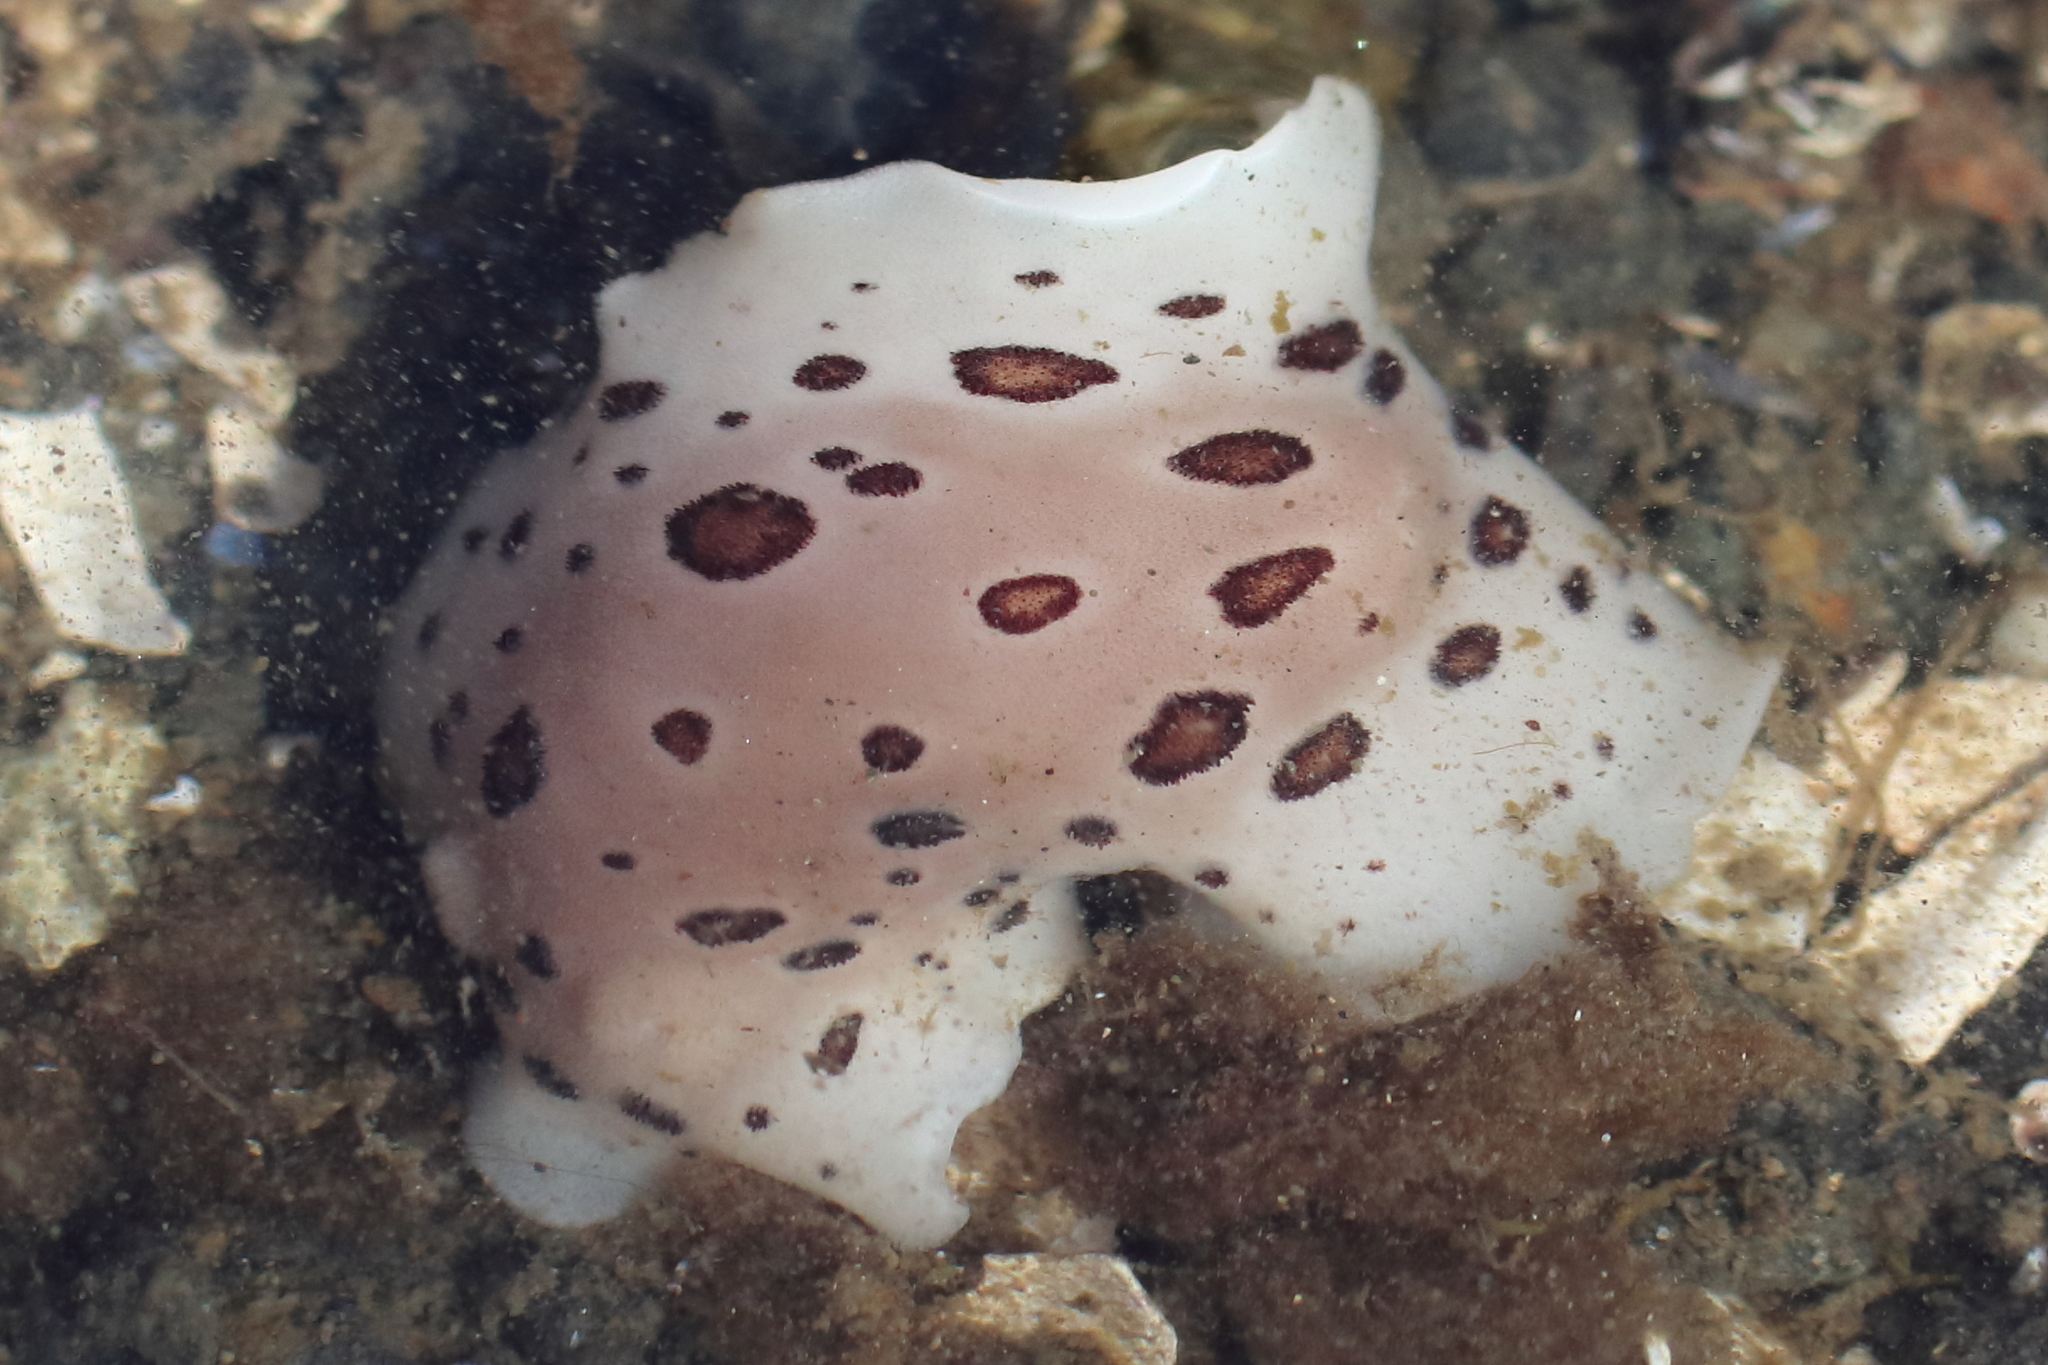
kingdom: Animalia
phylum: Mollusca
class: Gastropoda
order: Nudibranchia
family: Discodorididae
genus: Diaulula
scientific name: Diaulula odonoghuei
